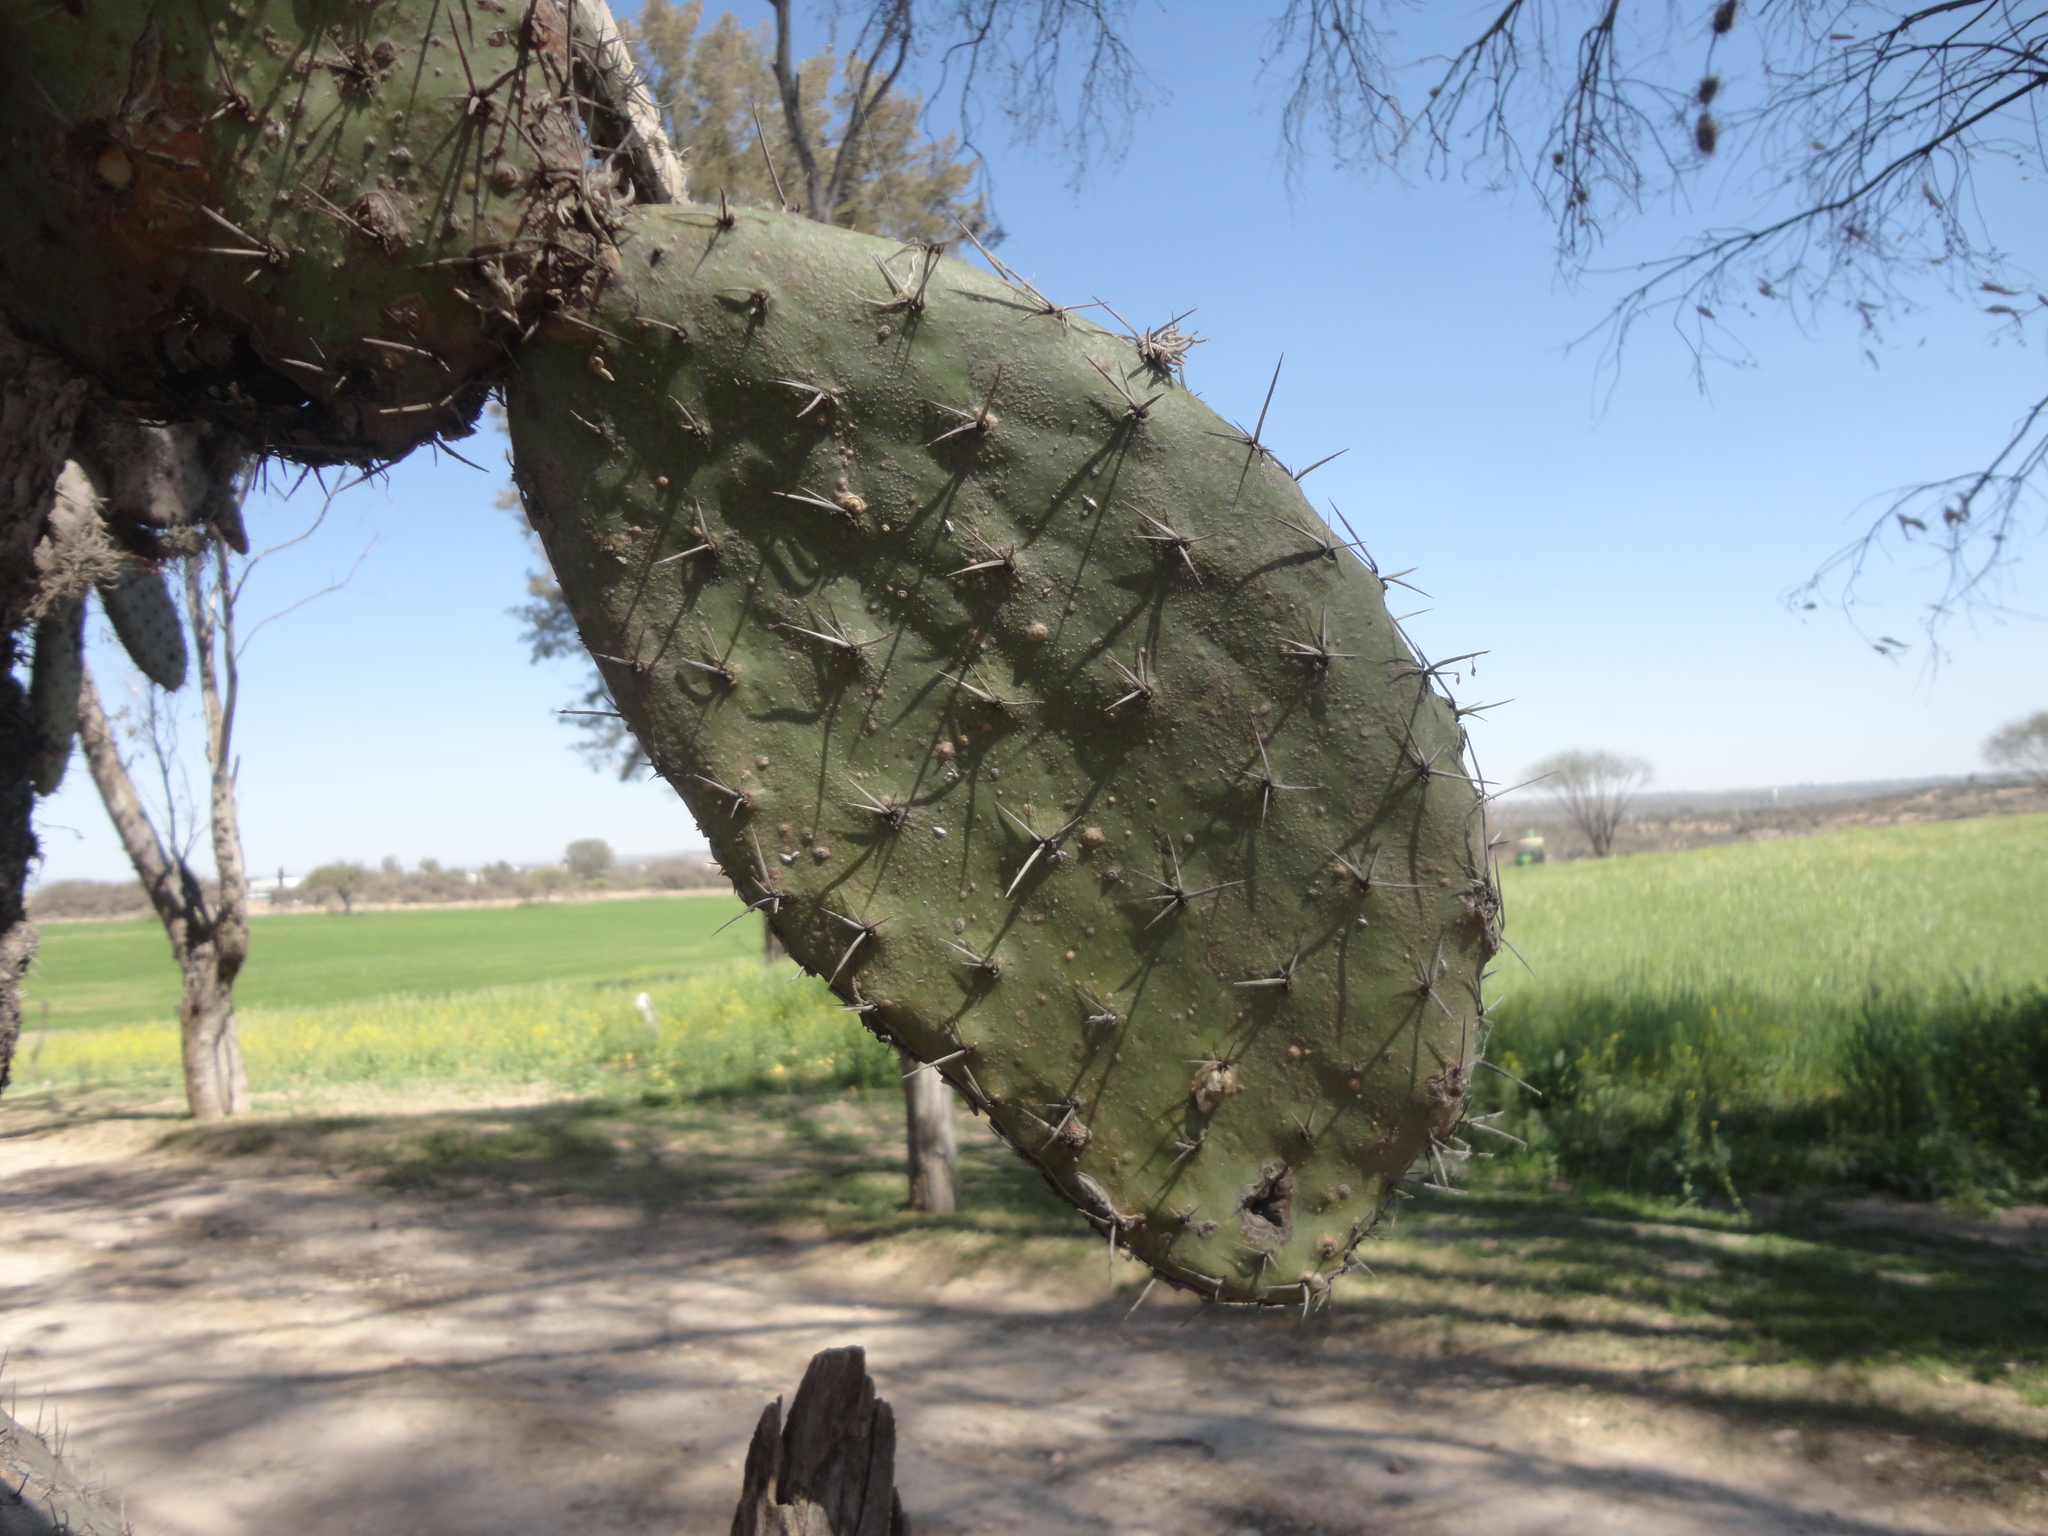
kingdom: Plantae
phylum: Tracheophyta
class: Magnoliopsida
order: Caryophyllales
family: Cactaceae
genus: Opuntia
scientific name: Opuntia jaliscana
